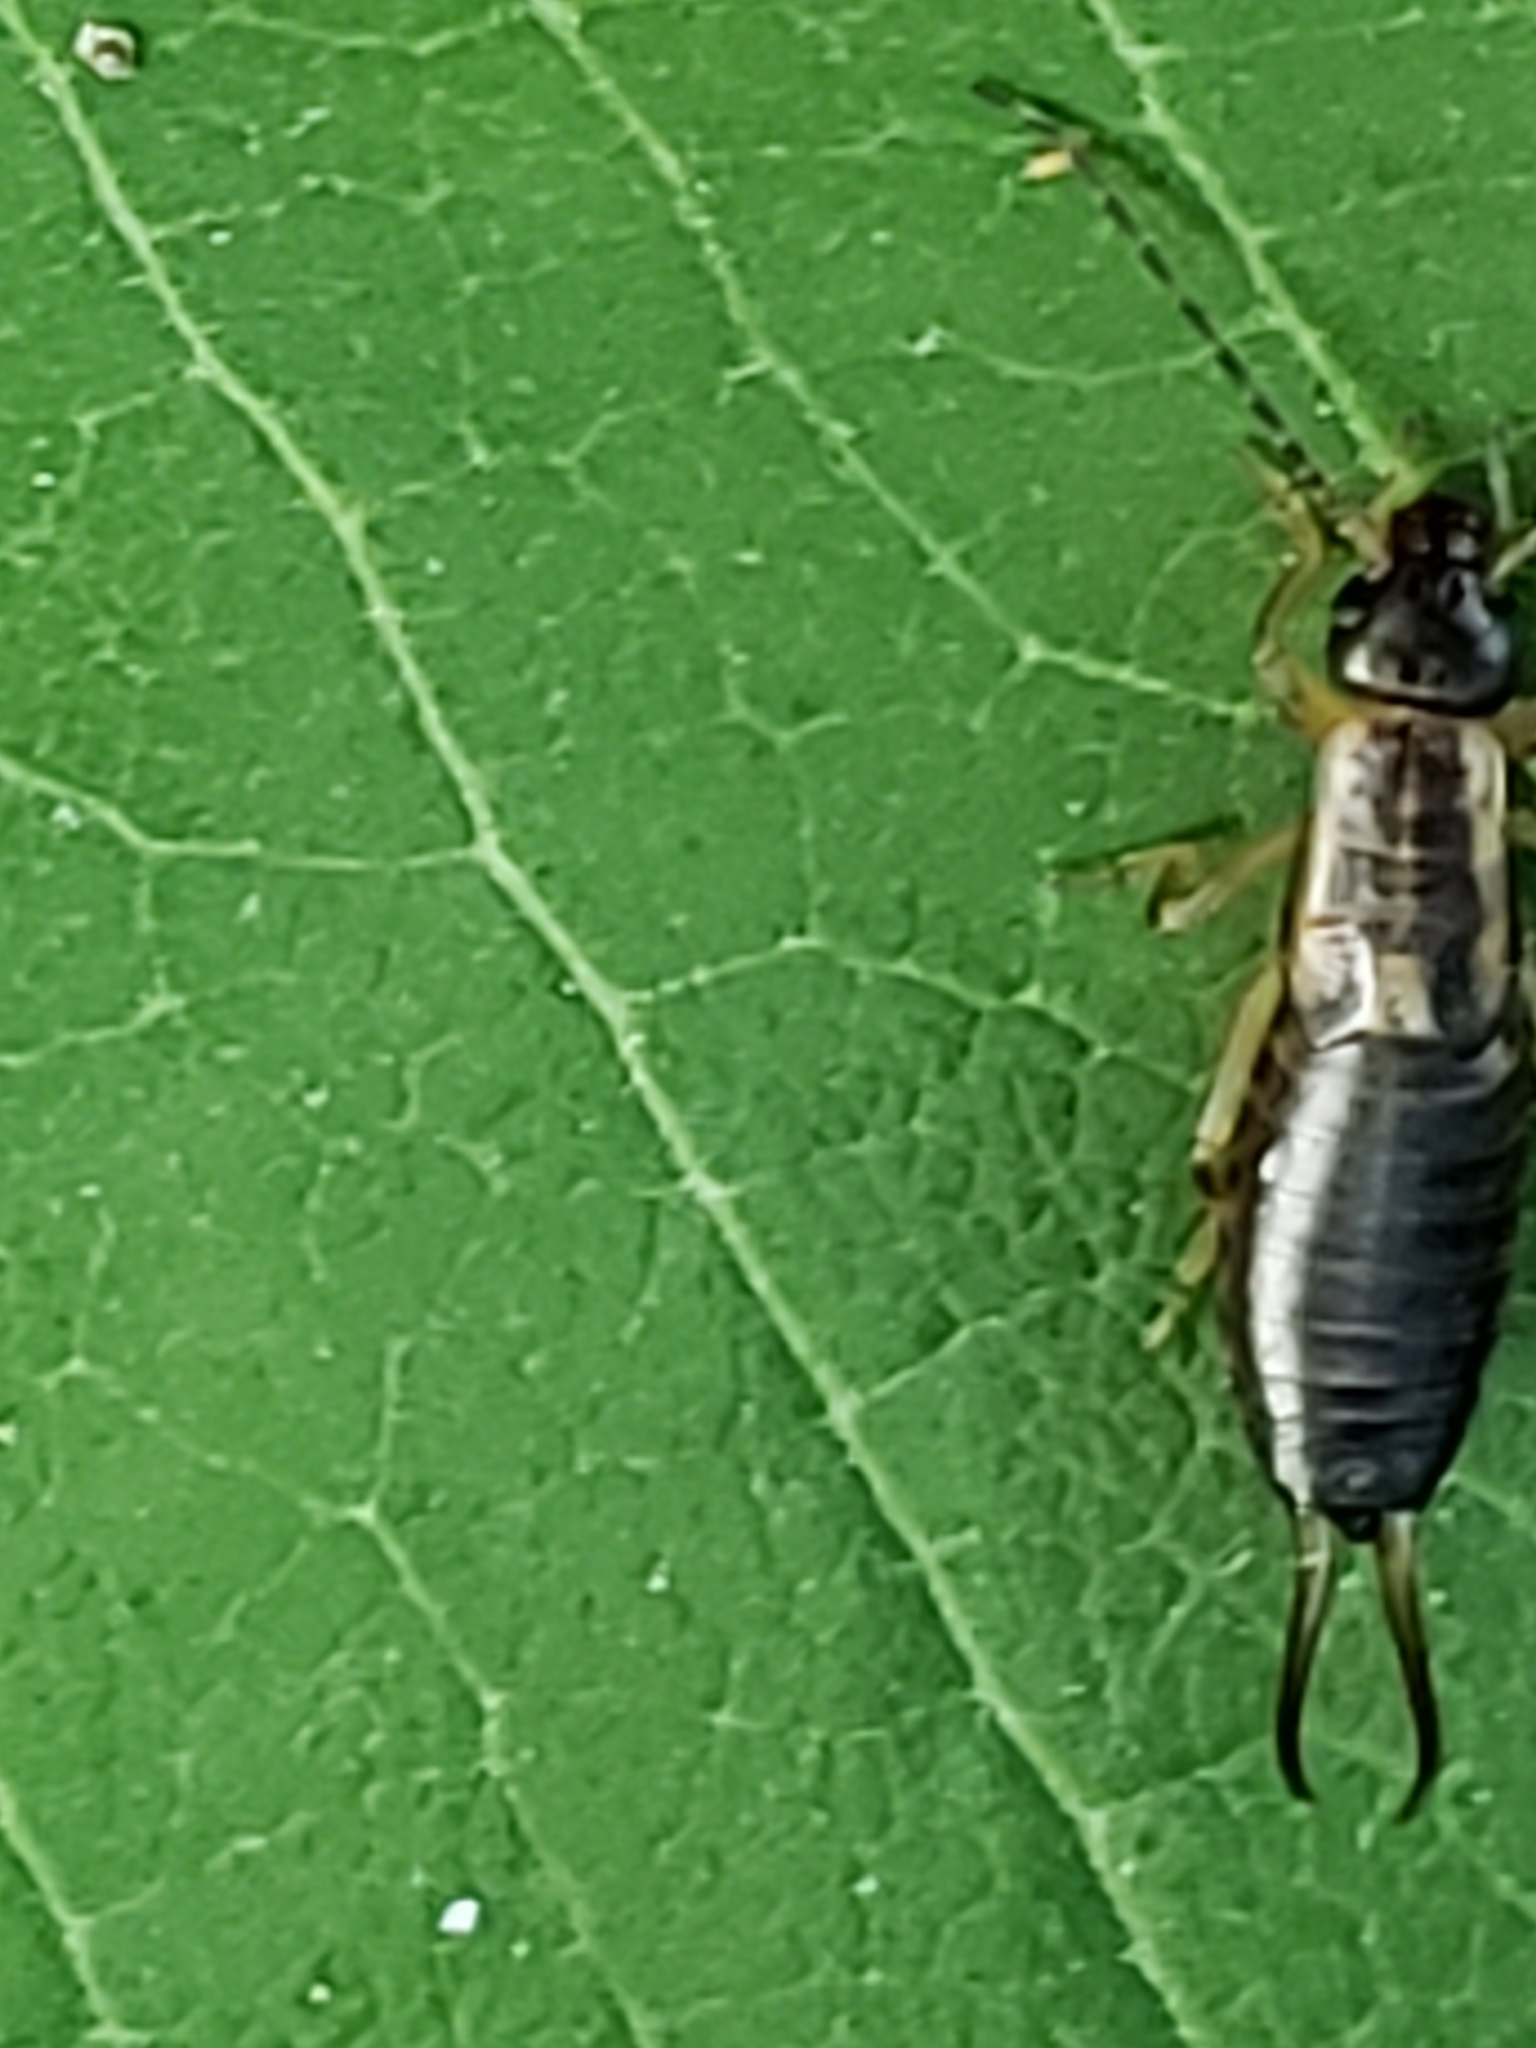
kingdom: Animalia
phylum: Arthropoda
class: Insecta
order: Dermaptera
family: Forficulidae
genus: Forficula
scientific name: Forficula
